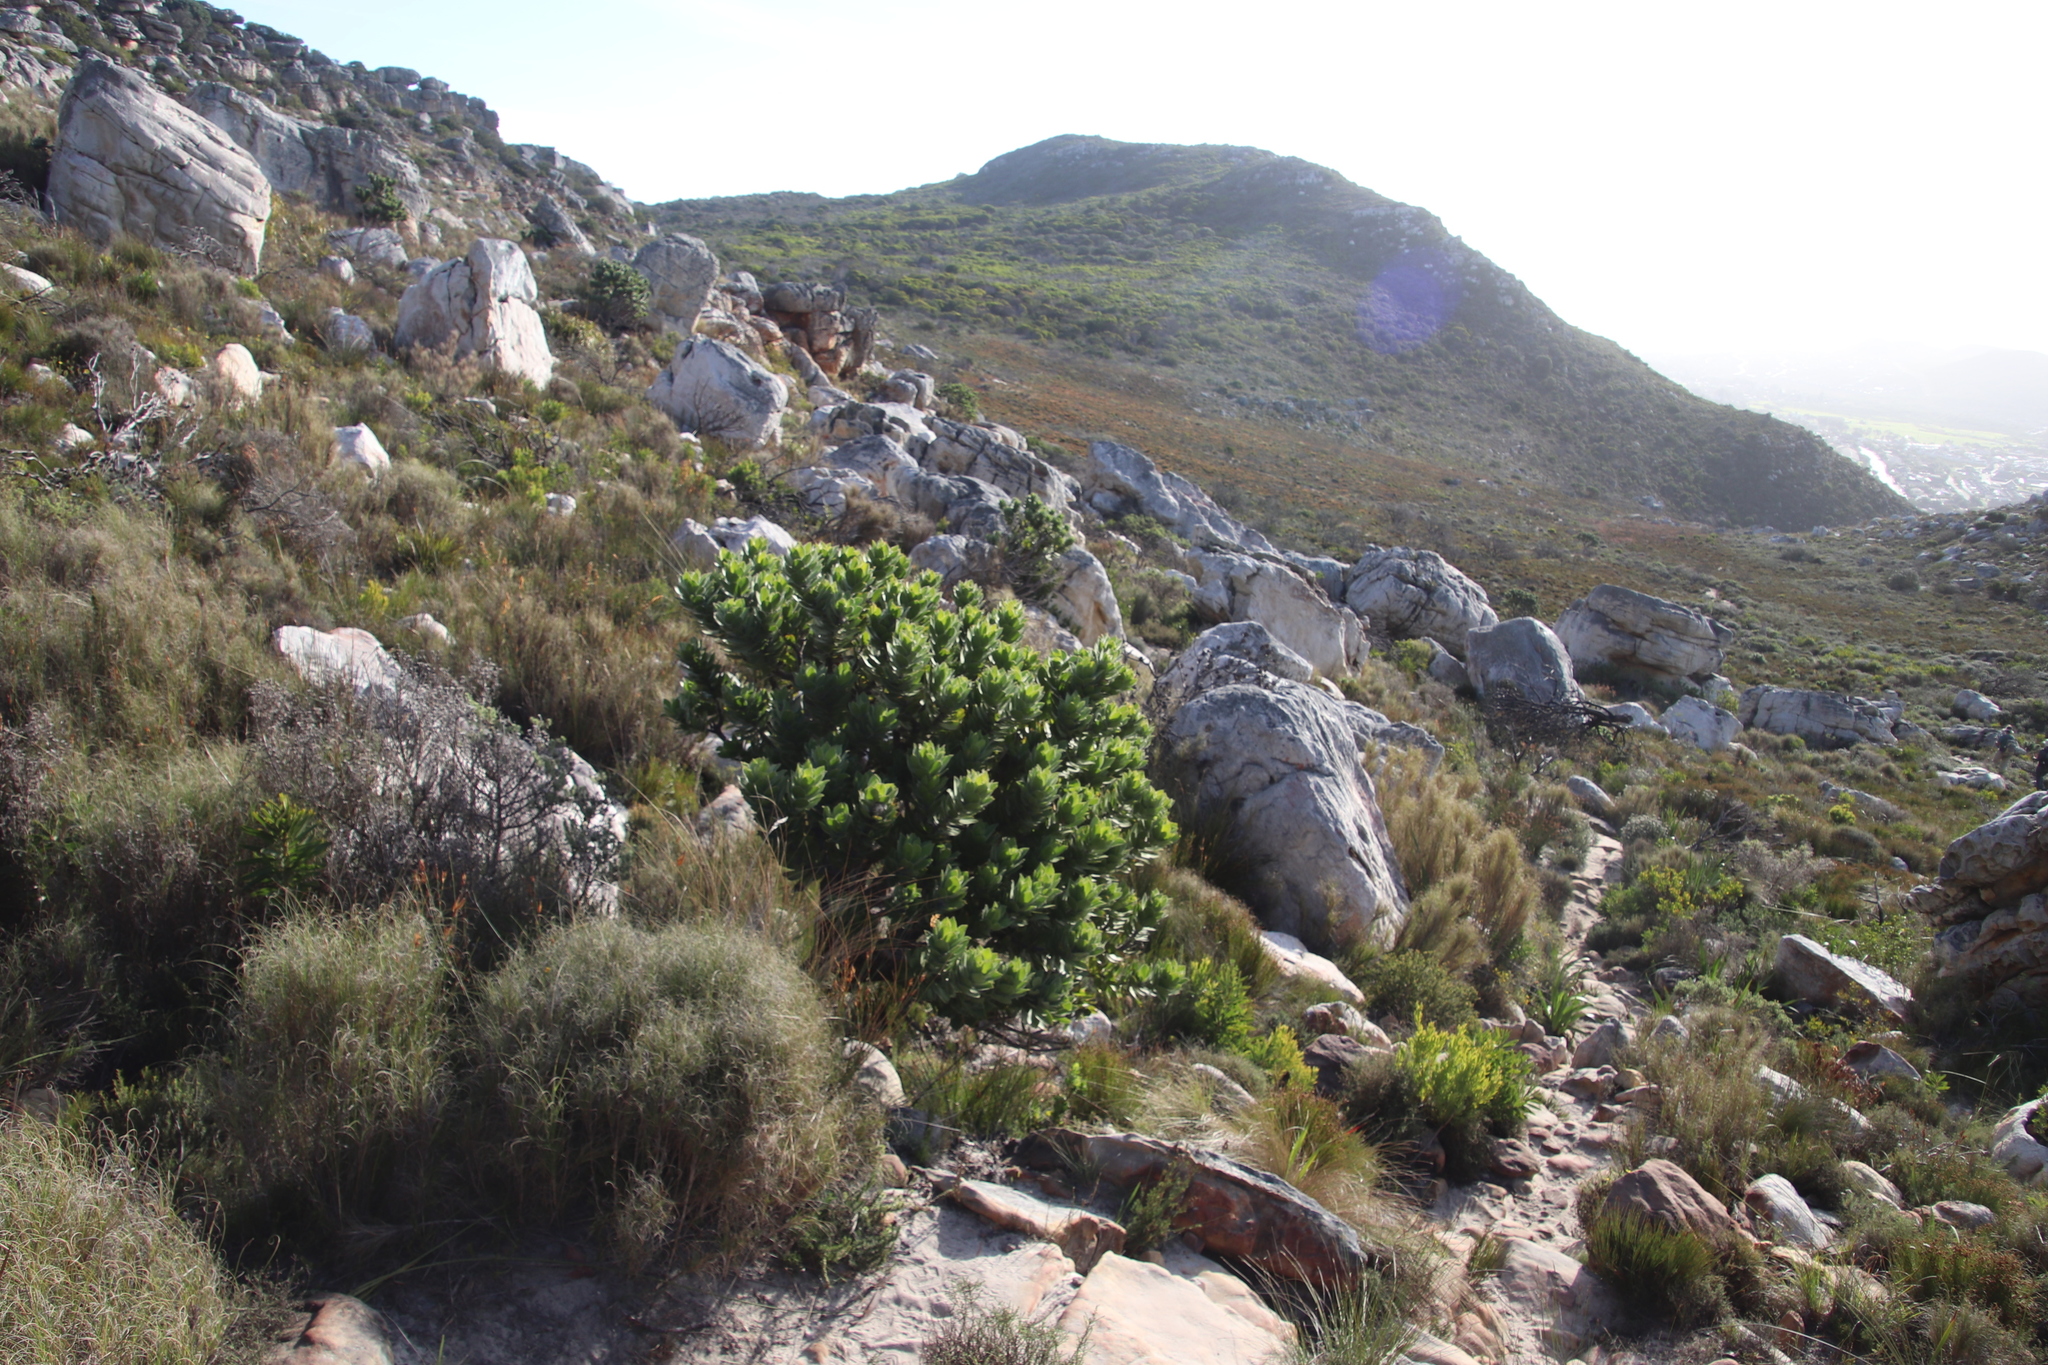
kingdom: Plantae
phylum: Tracheophyta
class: Magnoliopsida
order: Proteales
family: Proteaceae
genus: Leucospermum
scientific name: Leucospermum conocarpodendron
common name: Tree pincushion
